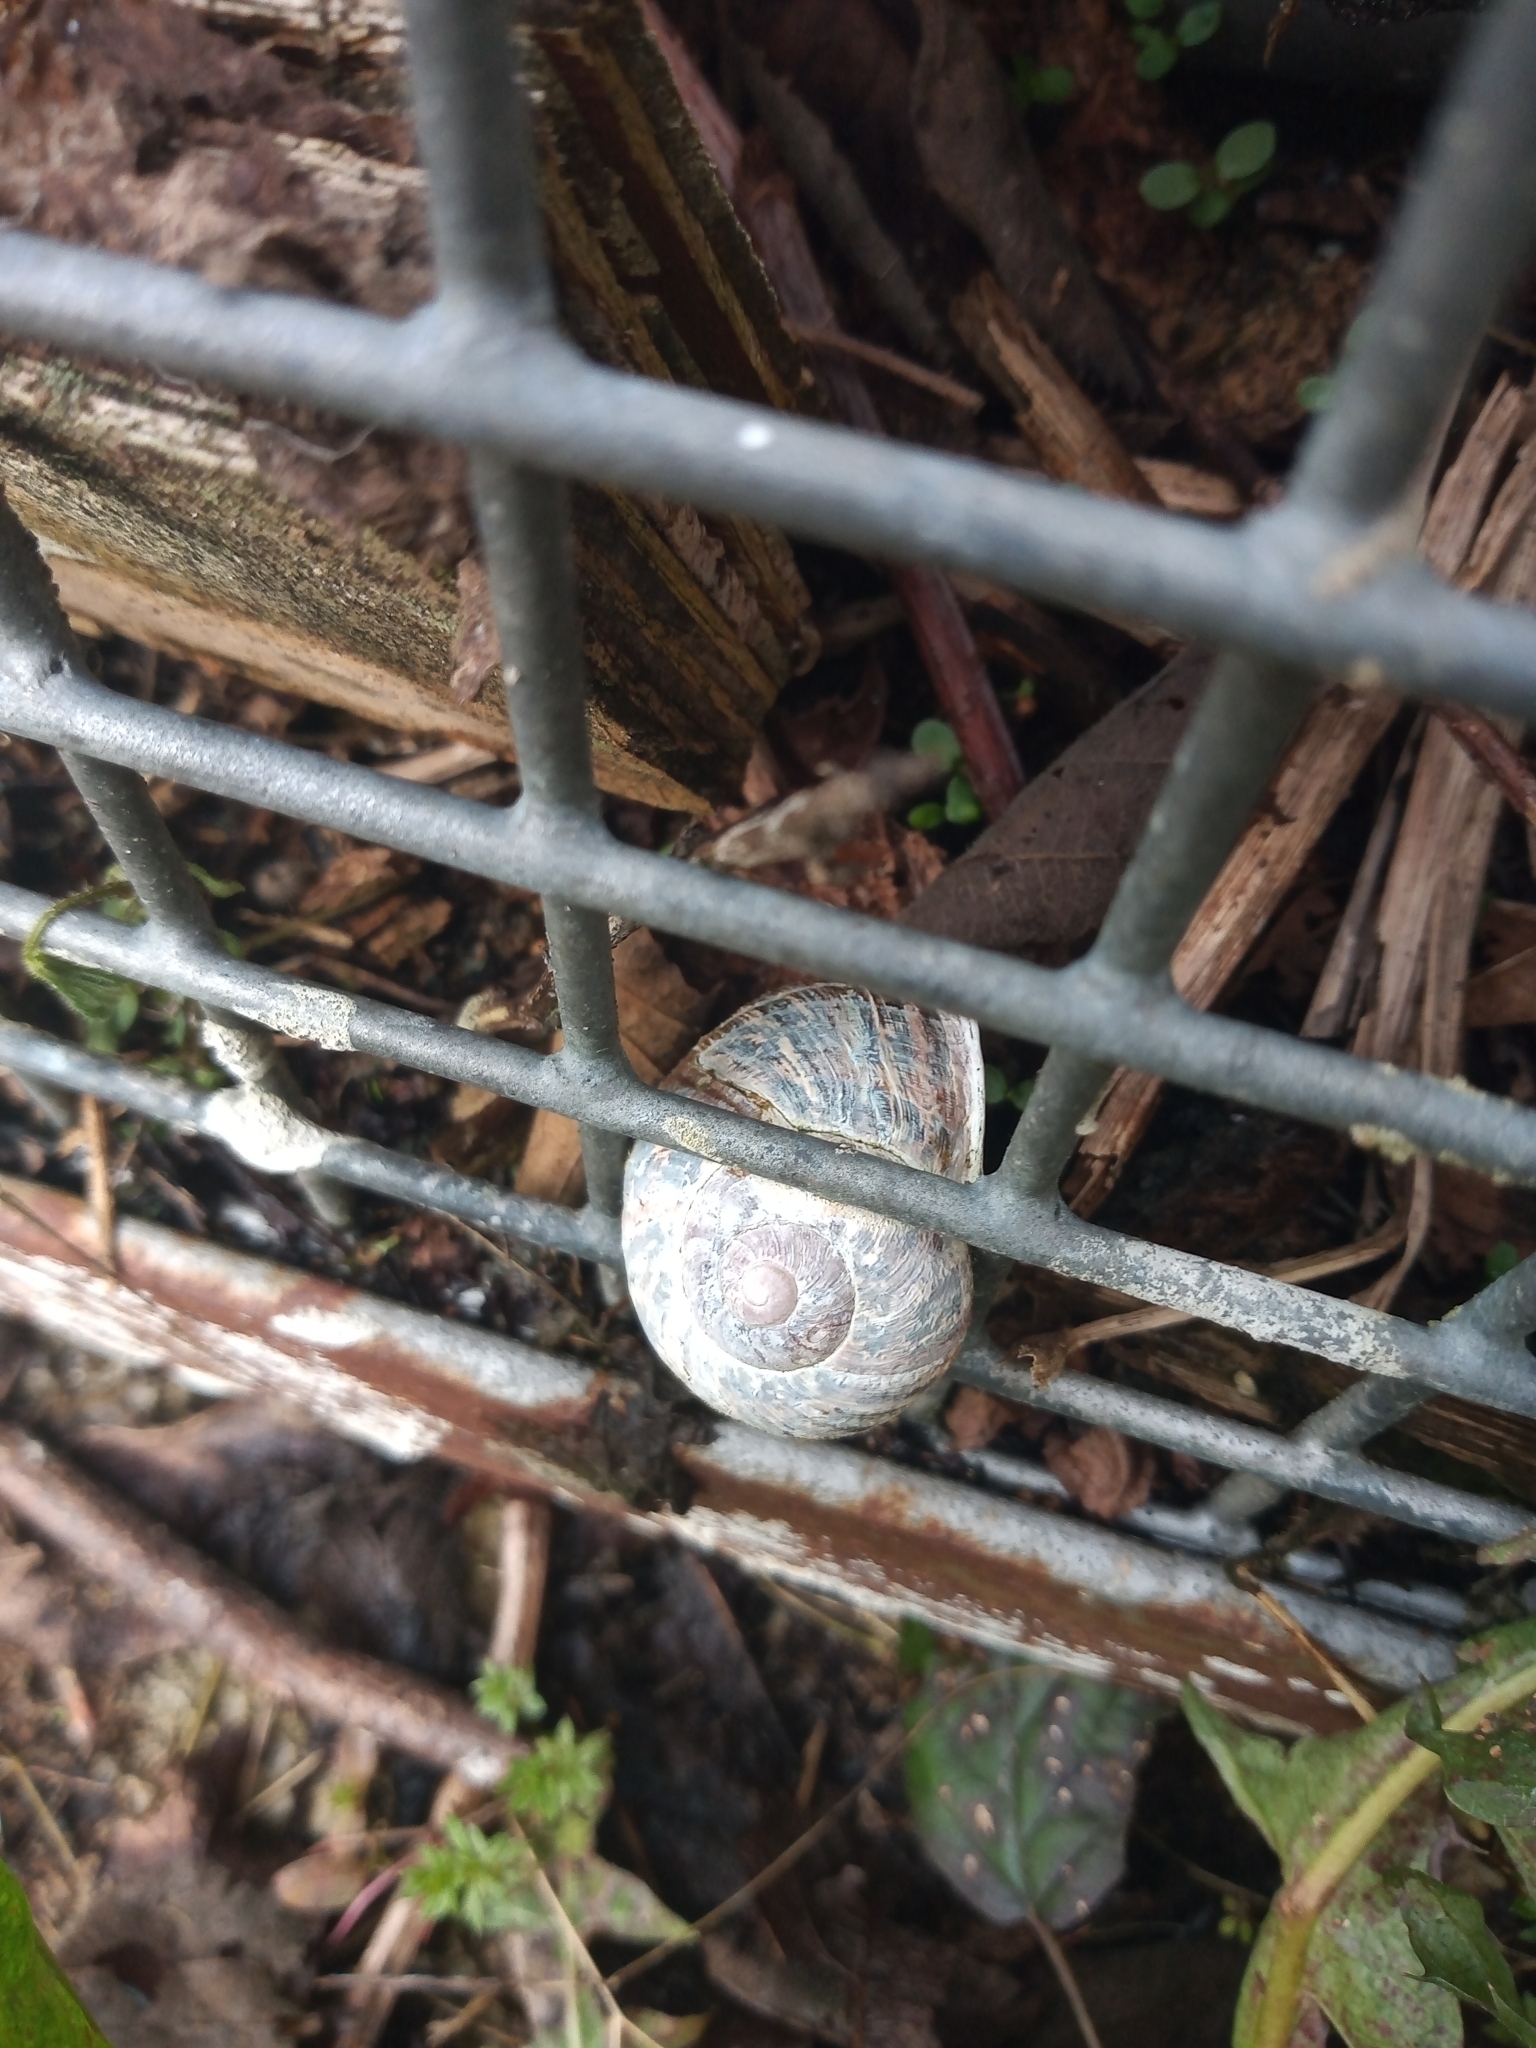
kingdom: Animalia
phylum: Mollusca
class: Gastropoda
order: Stylommatophora
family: Helicidae
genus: Cornu
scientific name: Cornu aspersum
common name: Brown garden snail
